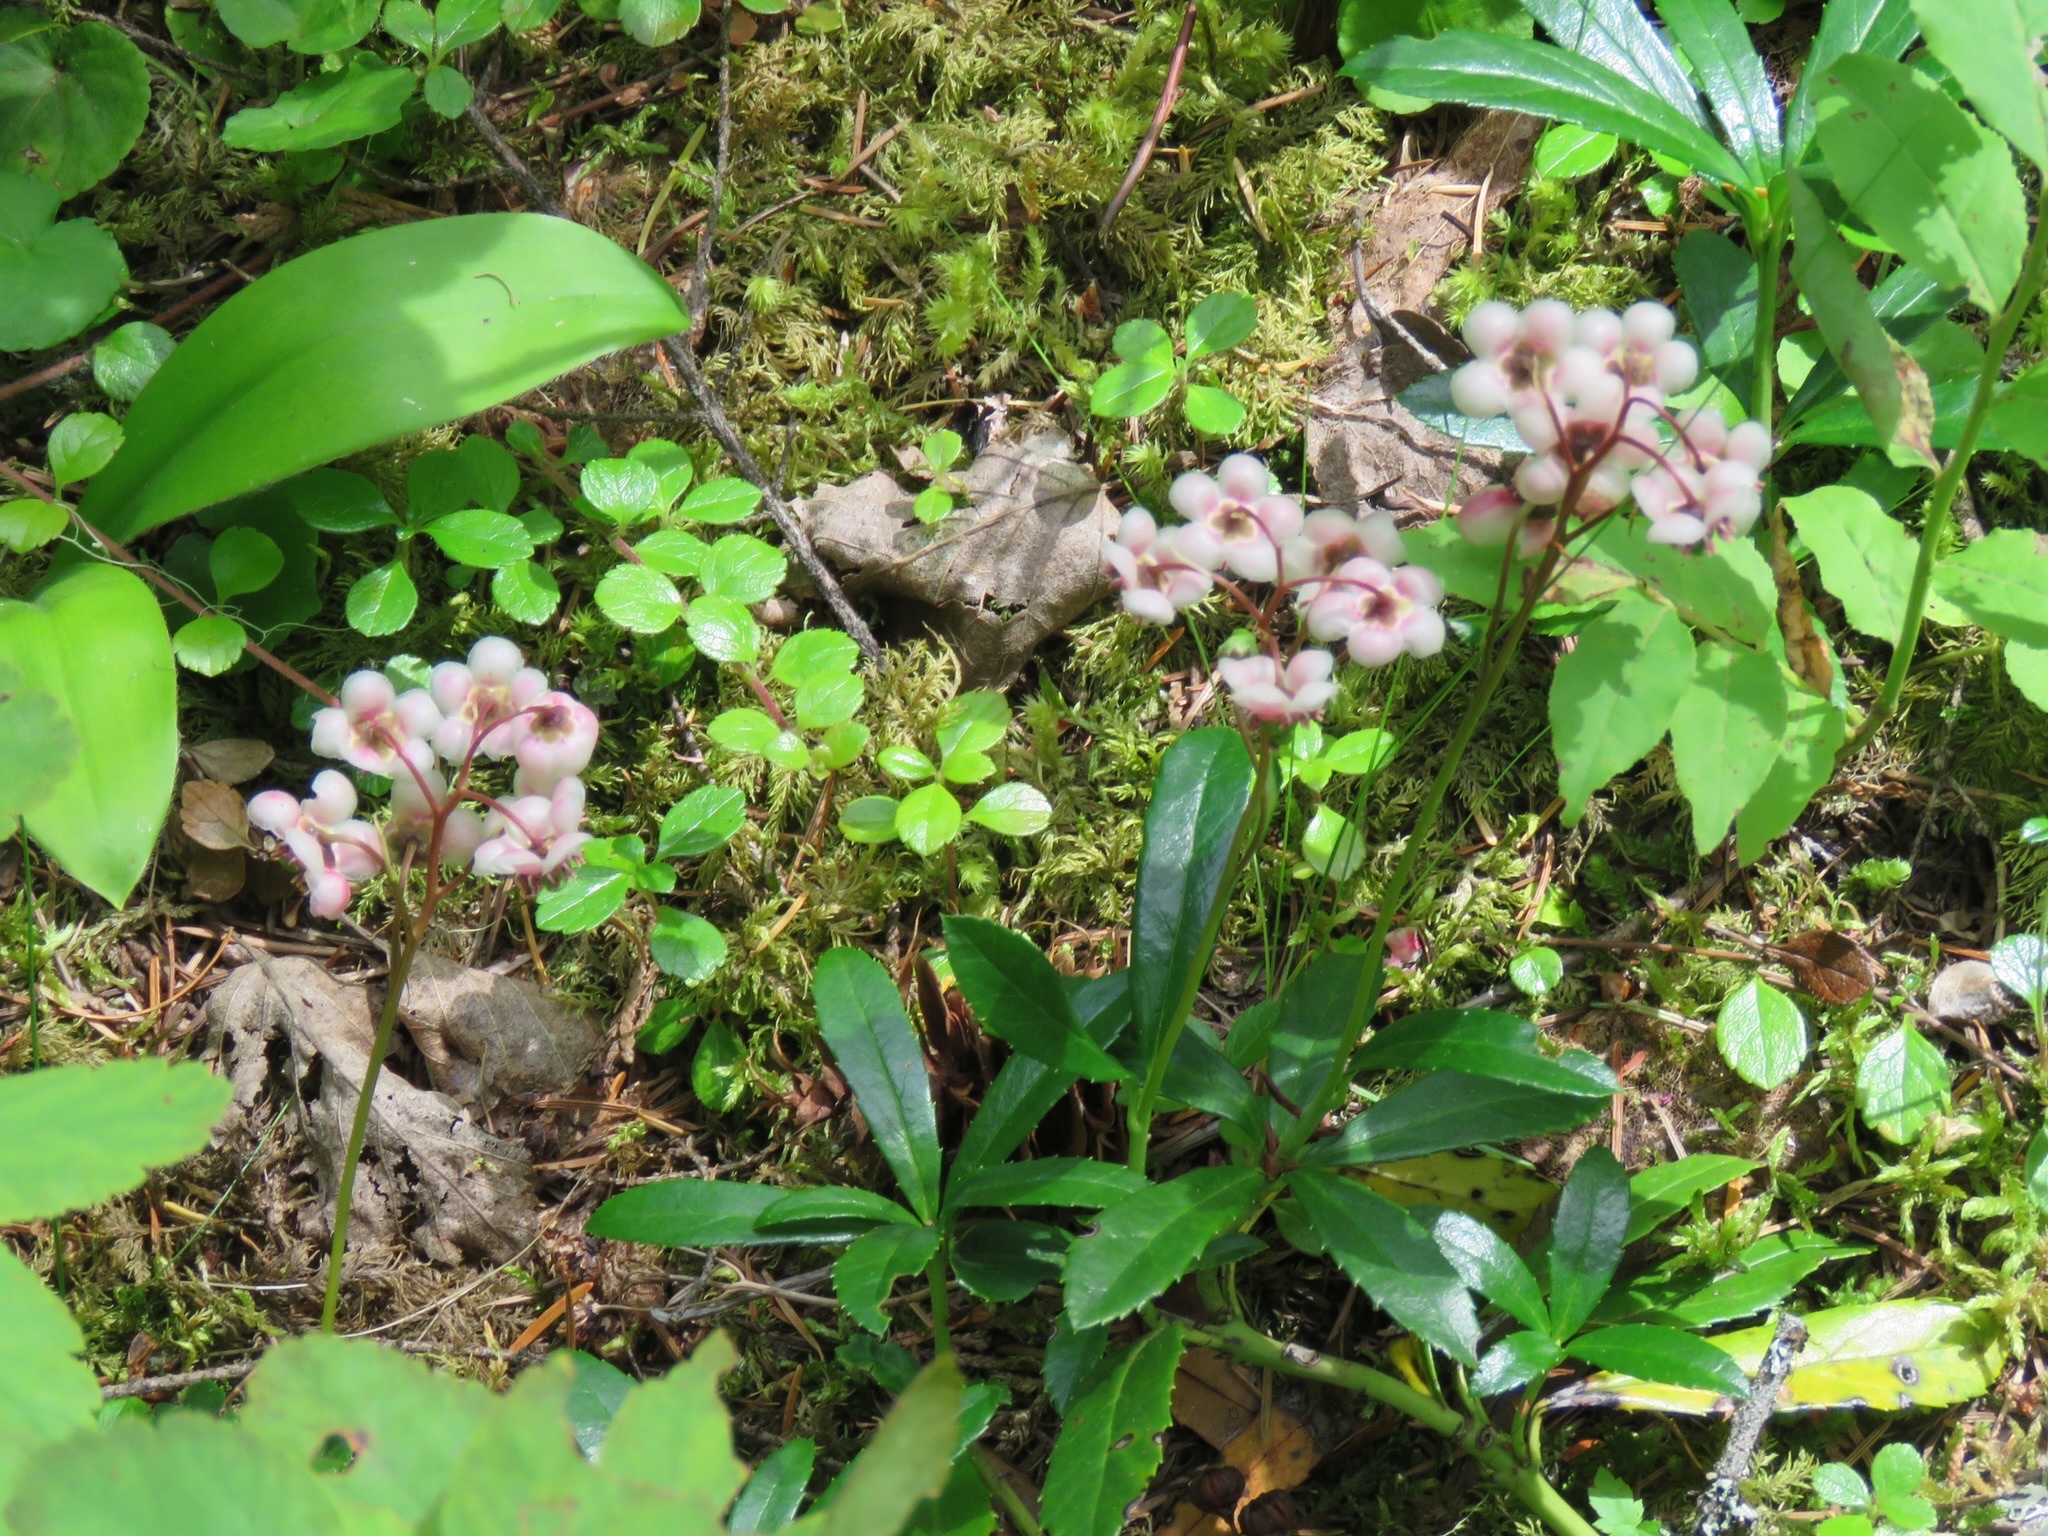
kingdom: Plantae
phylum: Tracheophyta
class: Magnoliopsida
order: Ericales
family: Ericaceae
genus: Chimaphila
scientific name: Chimaphila umbellata
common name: Pipsissewa
